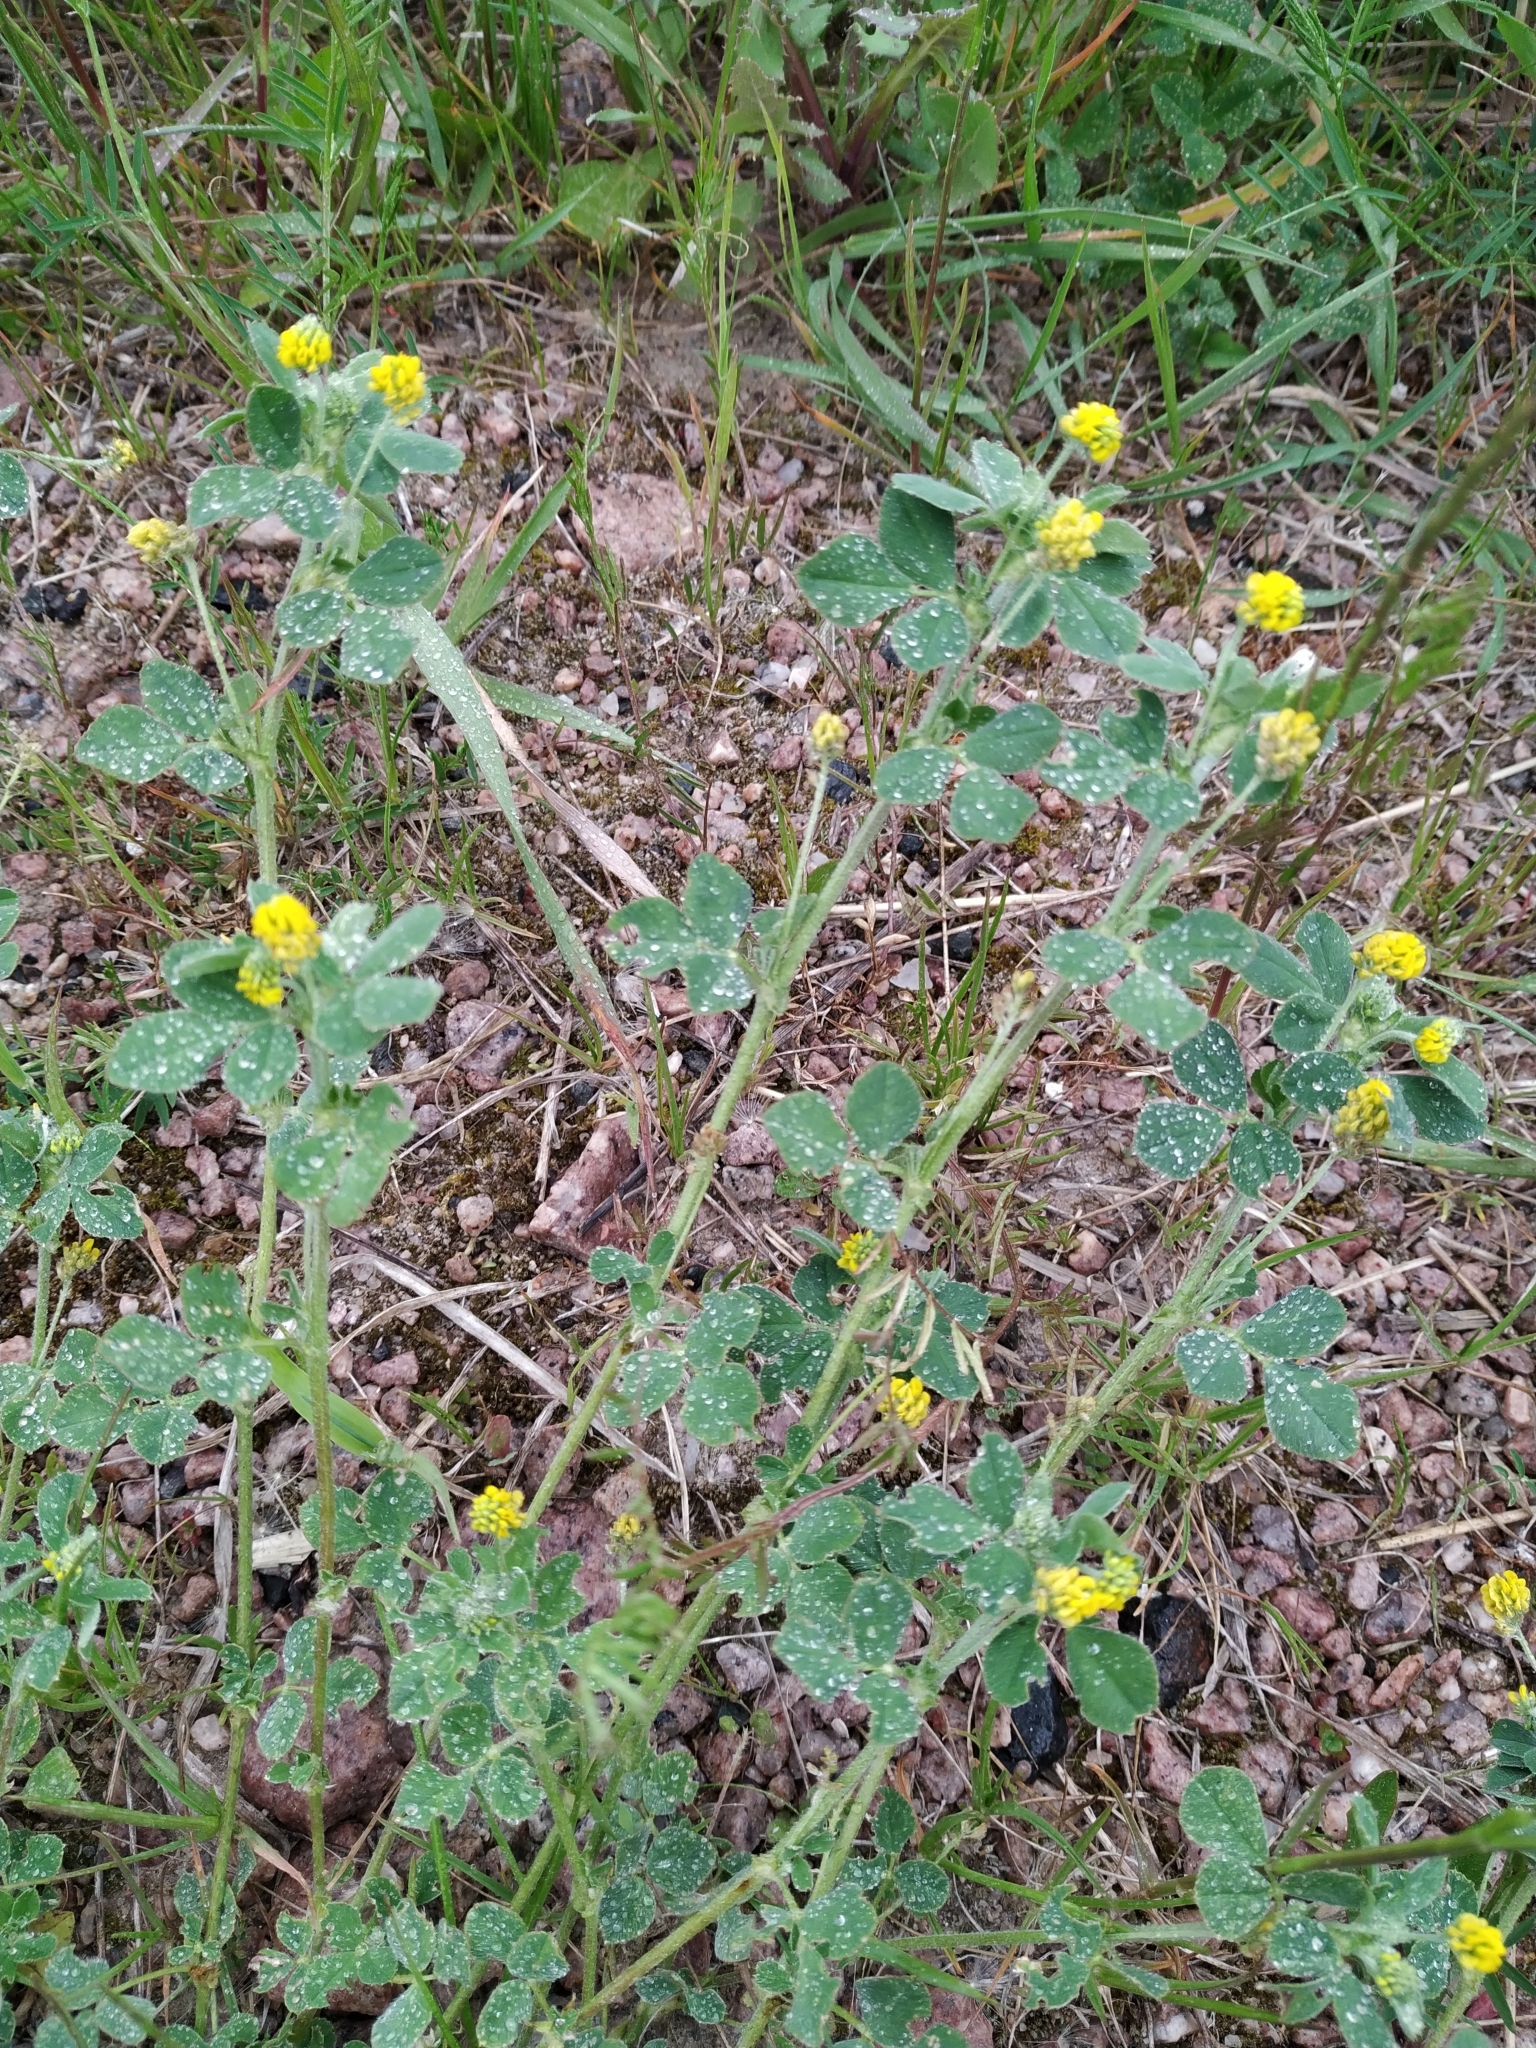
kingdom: Plantae
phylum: Tracheophyta
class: Magnoliopsida
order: Fabales
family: Fabaceae
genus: Medicago
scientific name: Medicago lupulina
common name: Black medick
